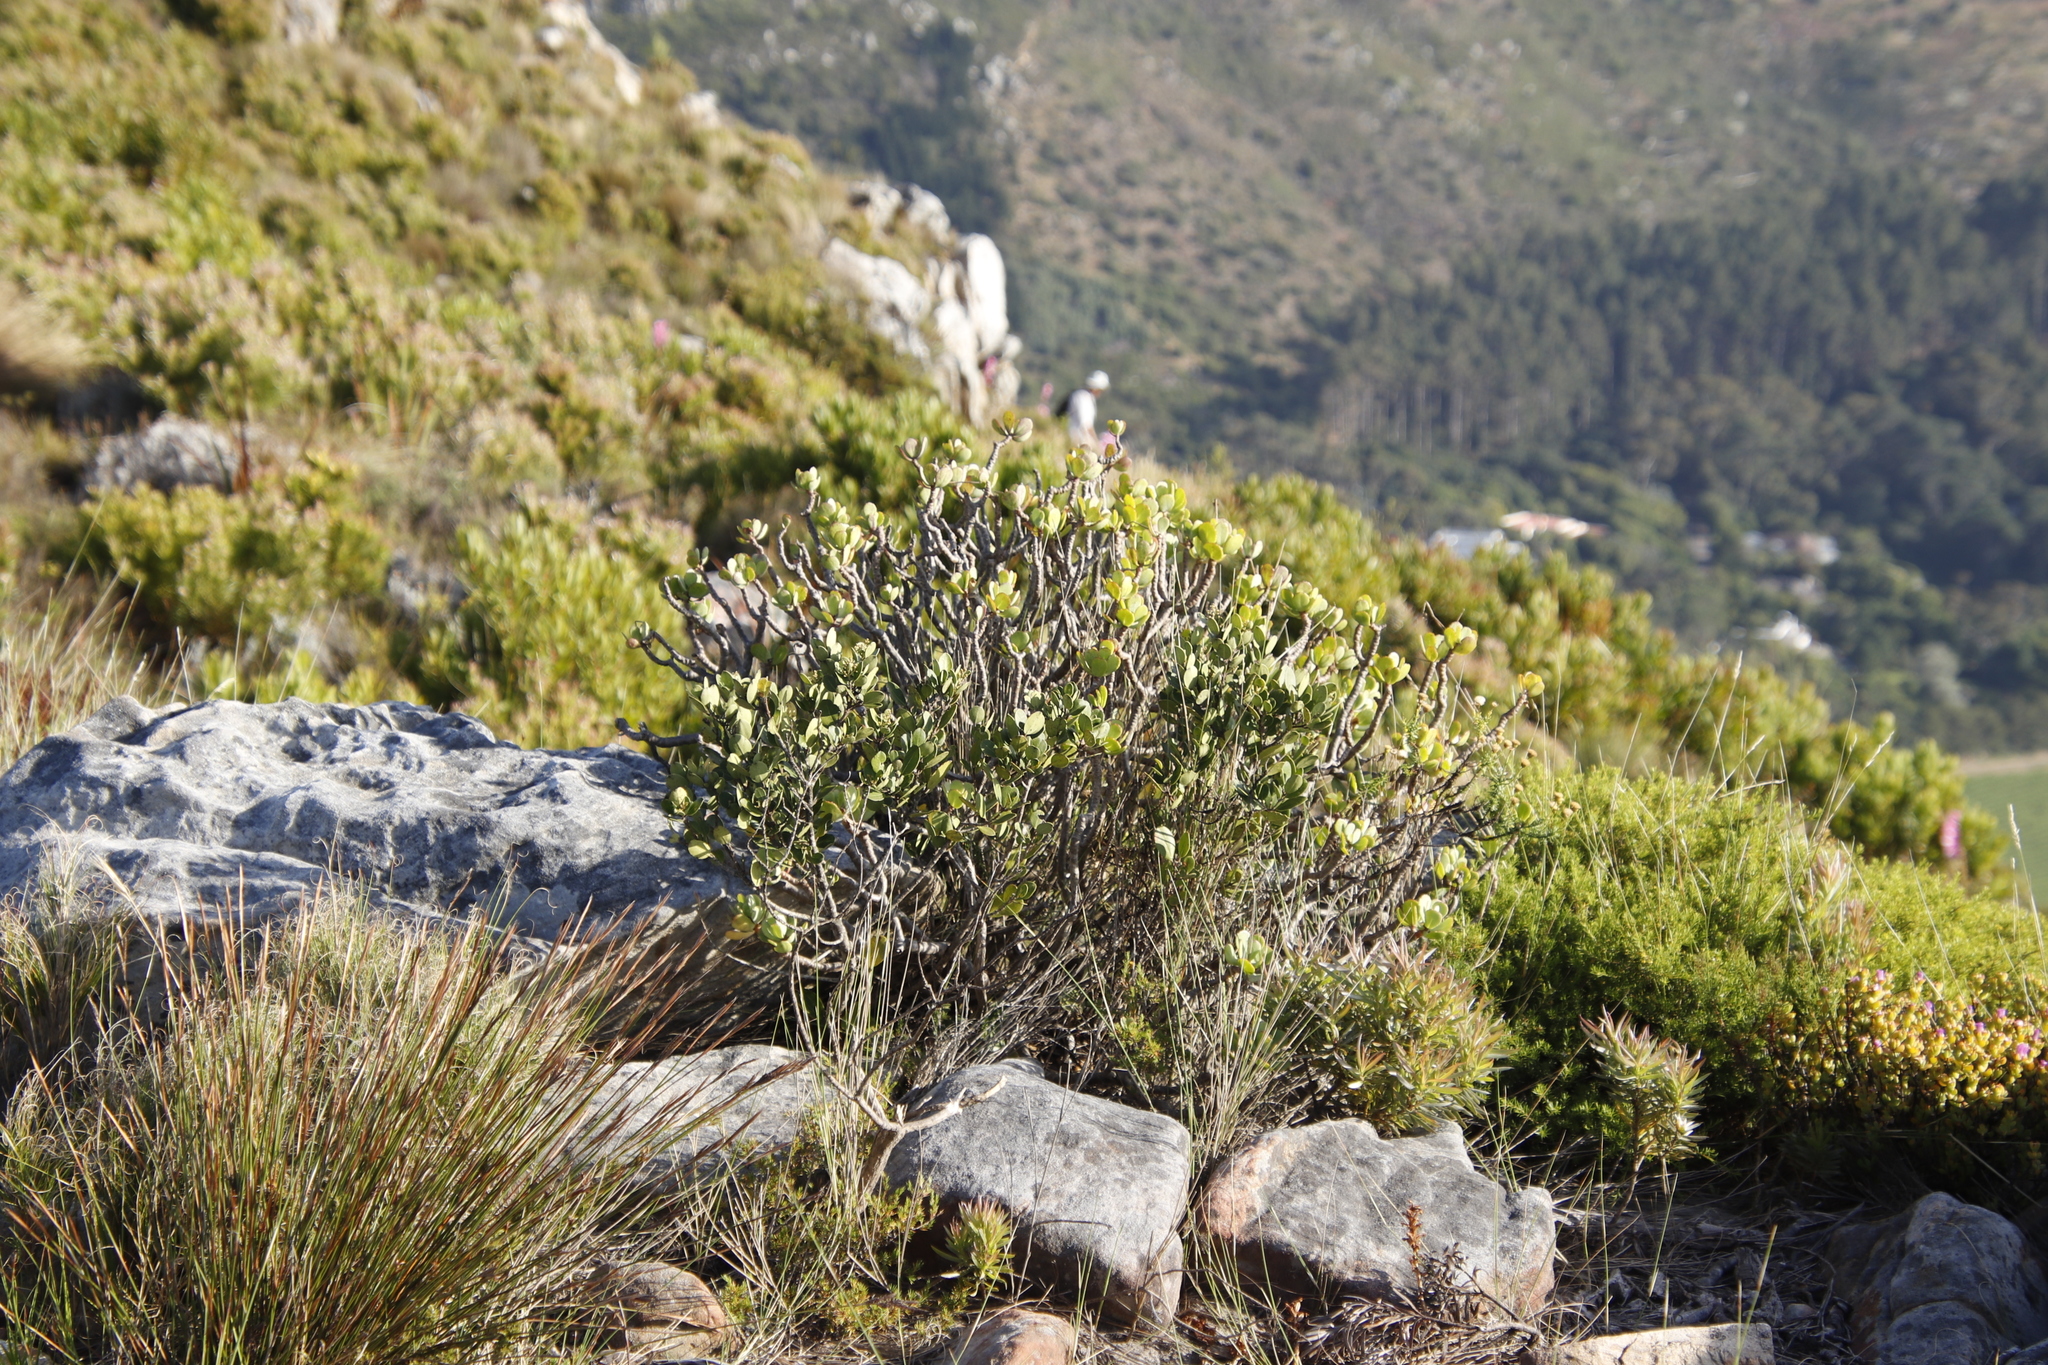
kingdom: Plantae
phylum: Tracheophyta
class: Magnoliopsida
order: Asterales
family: Asteraceae
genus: Othonna
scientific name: Othonna dentata
